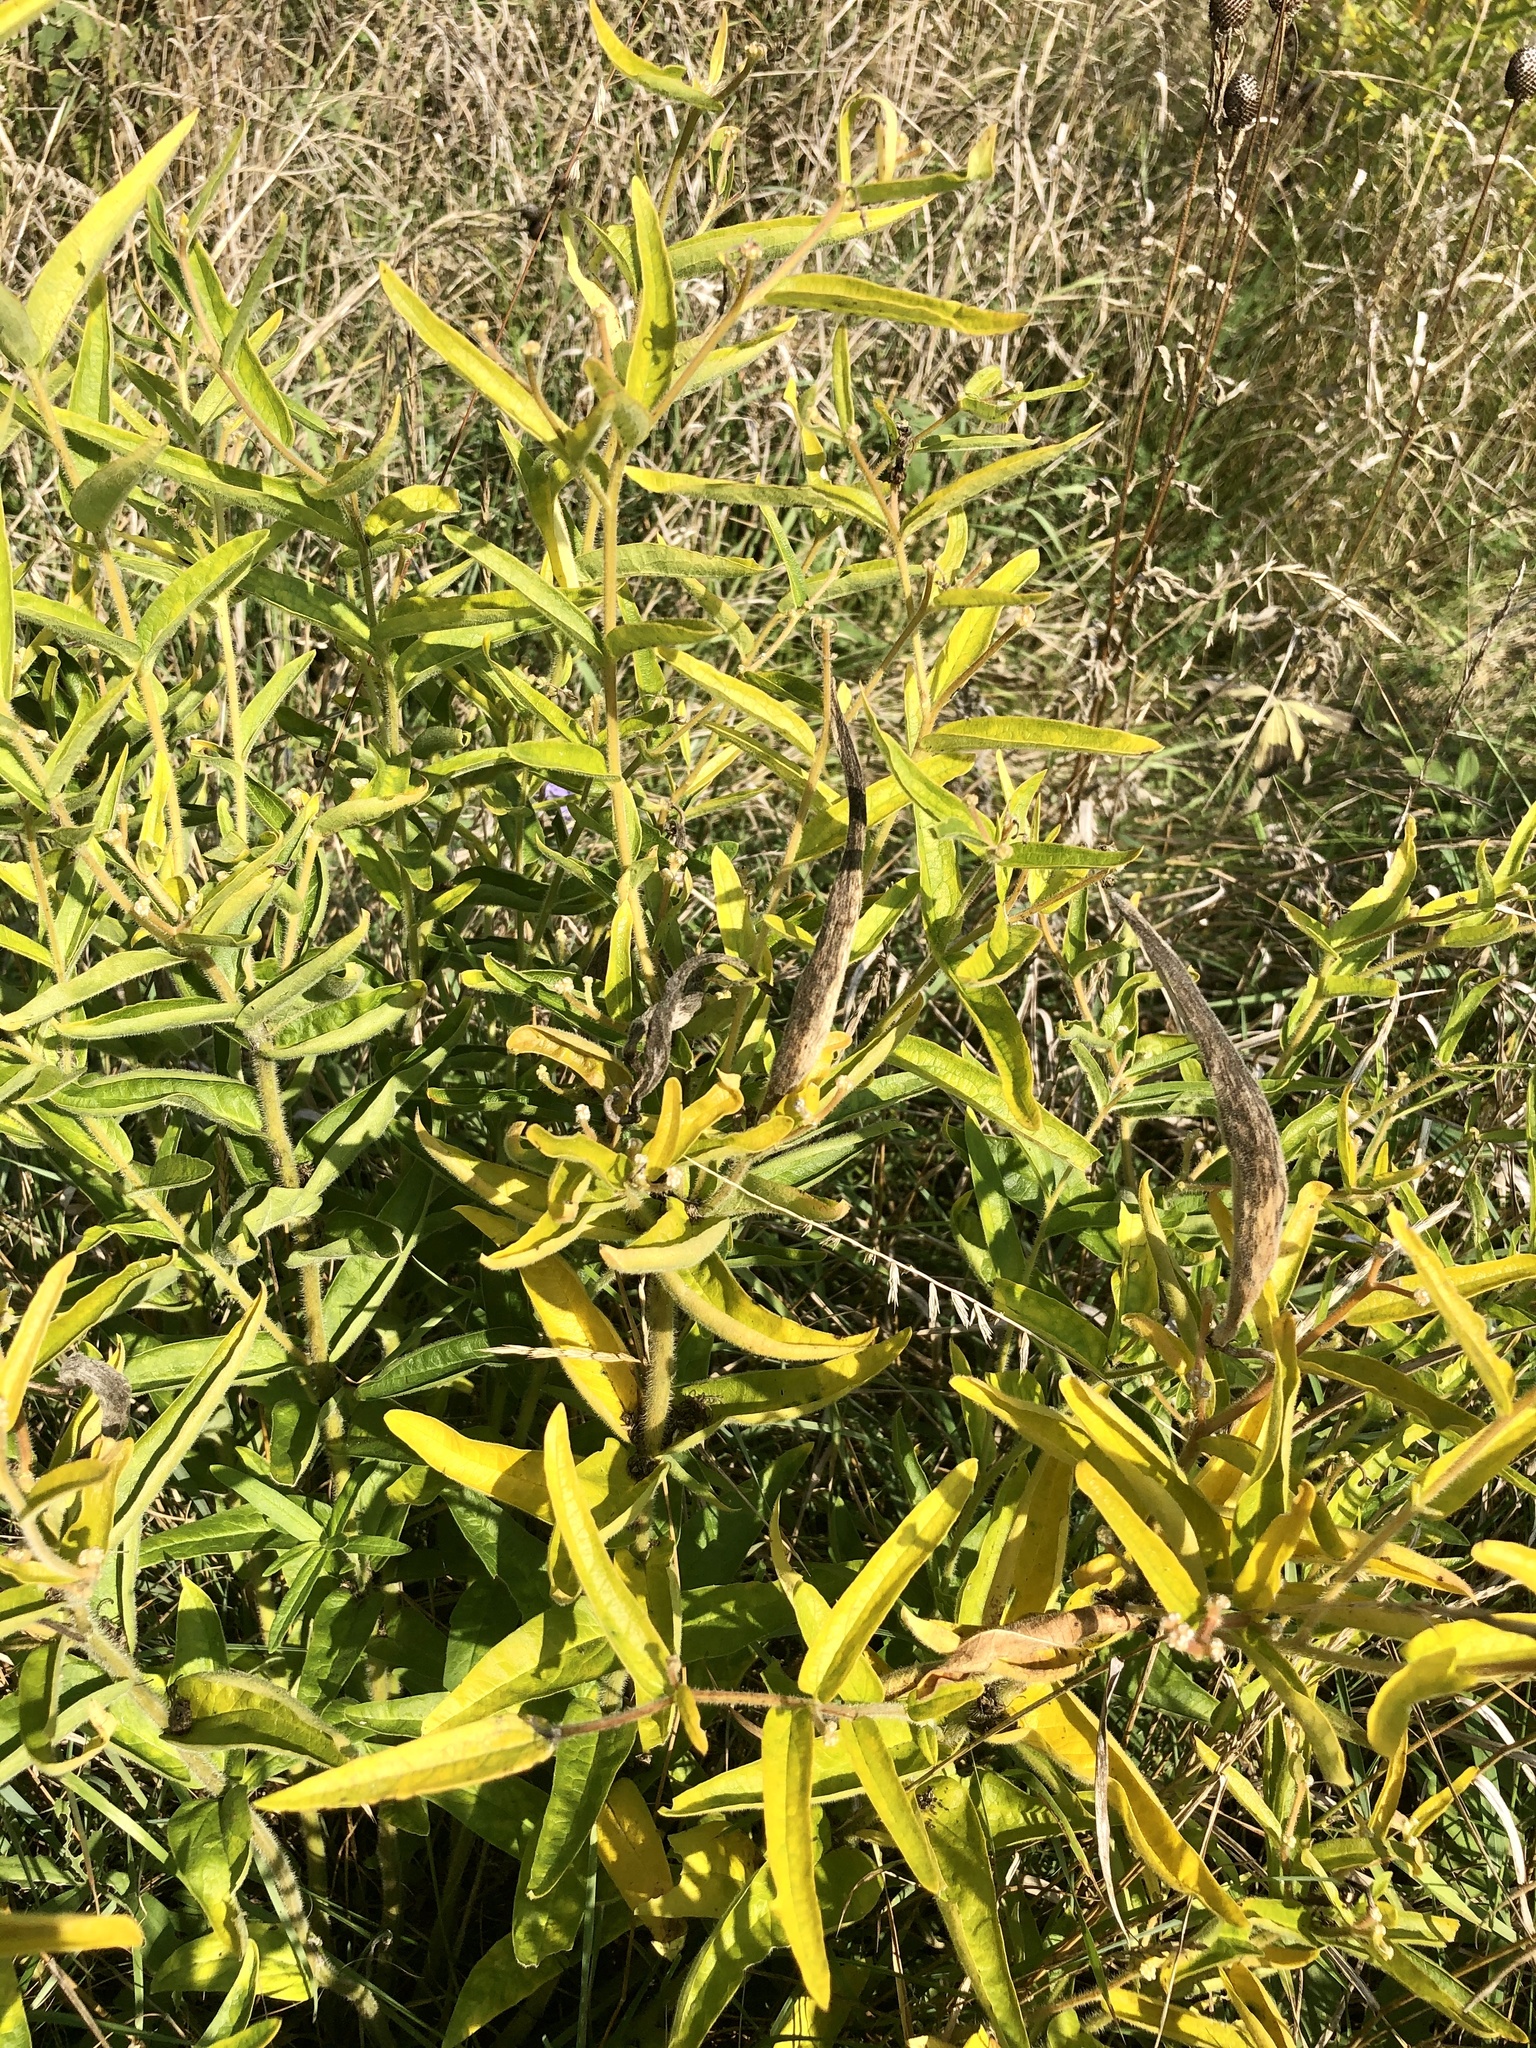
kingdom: Plantae
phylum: Tracheophyta
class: Magnoliopsida
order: Gentianales
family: Apocynaceae
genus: Asclepias
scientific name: Asclepias tuberosa
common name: Butterfly milkweed
